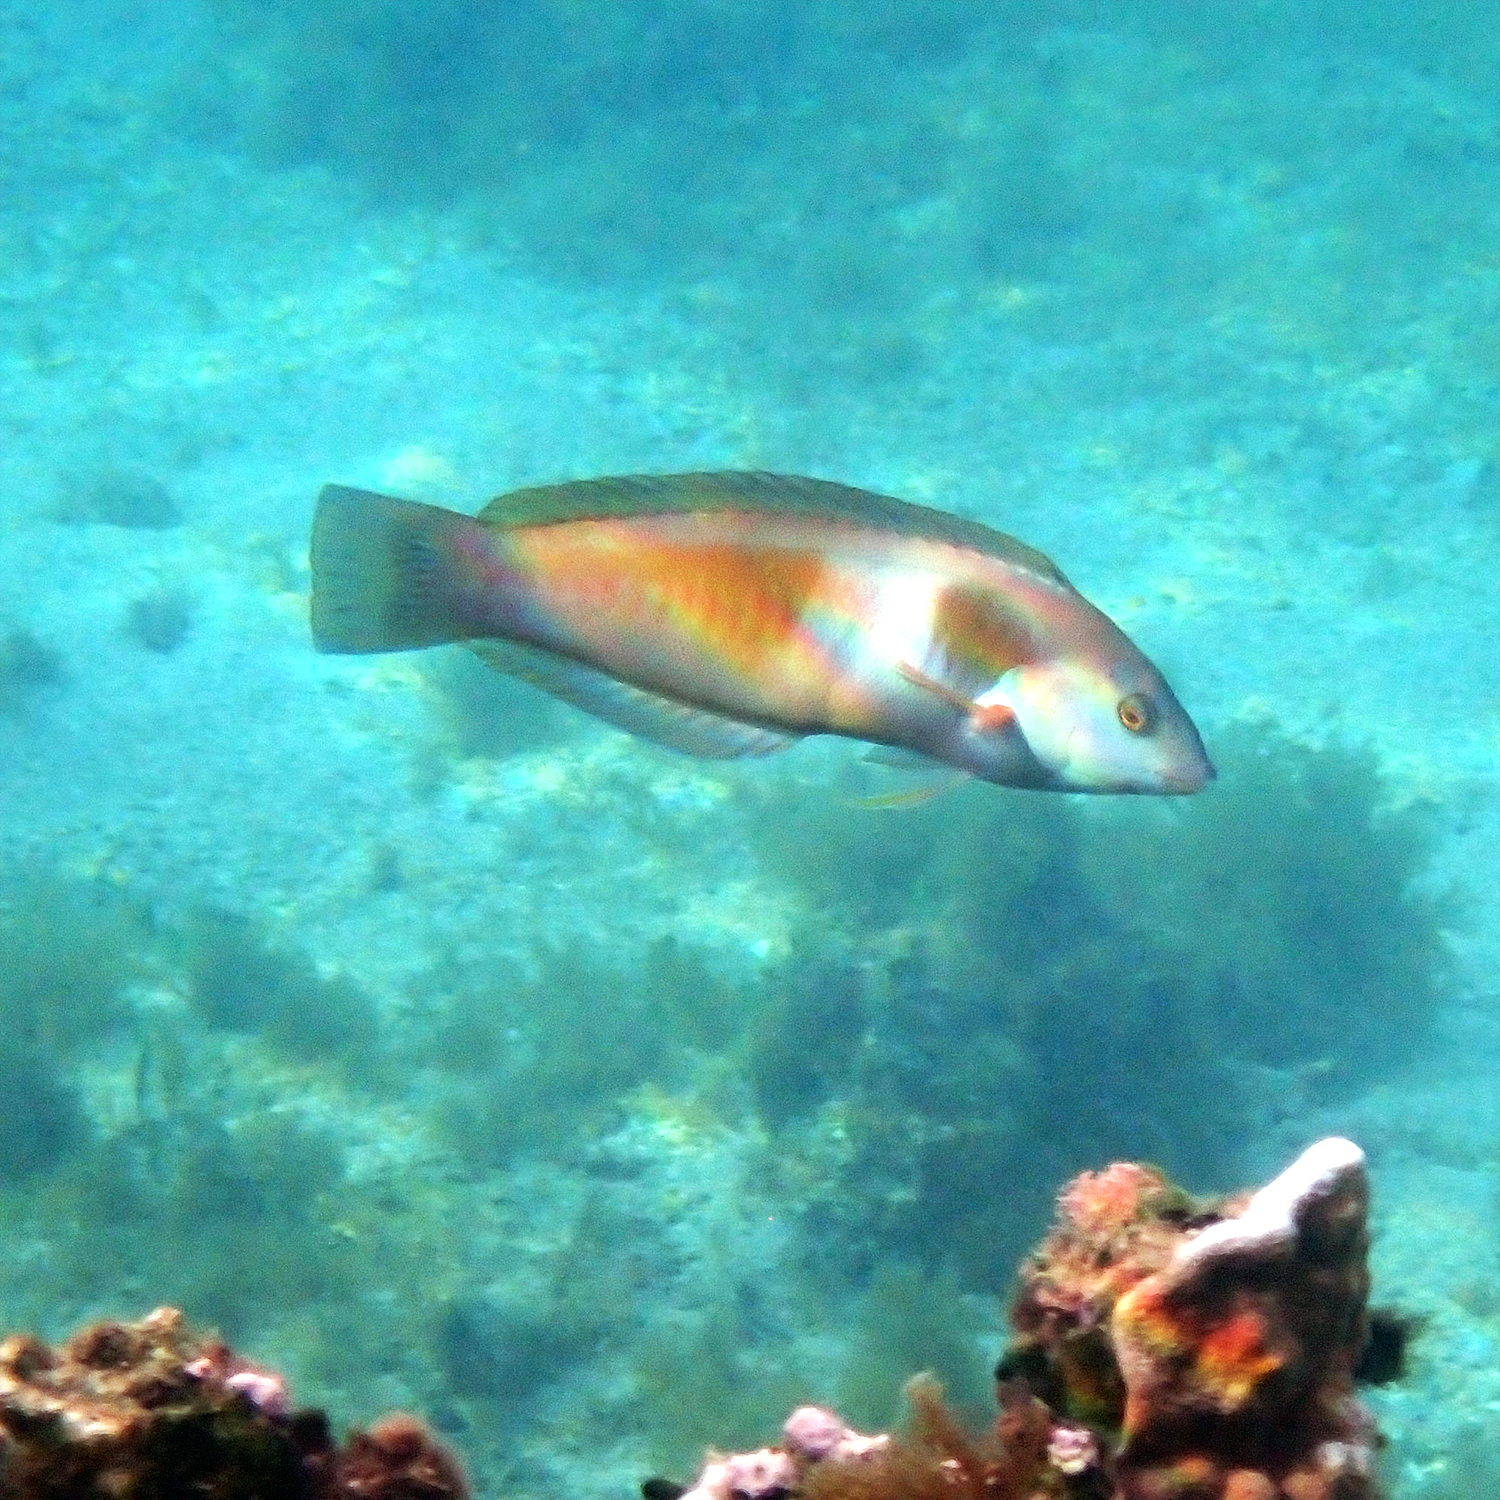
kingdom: Animalia
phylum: Chordata
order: Perciformes
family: Labridae
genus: Coris
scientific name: Coris sandeyeri
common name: Sandager's wrasse
